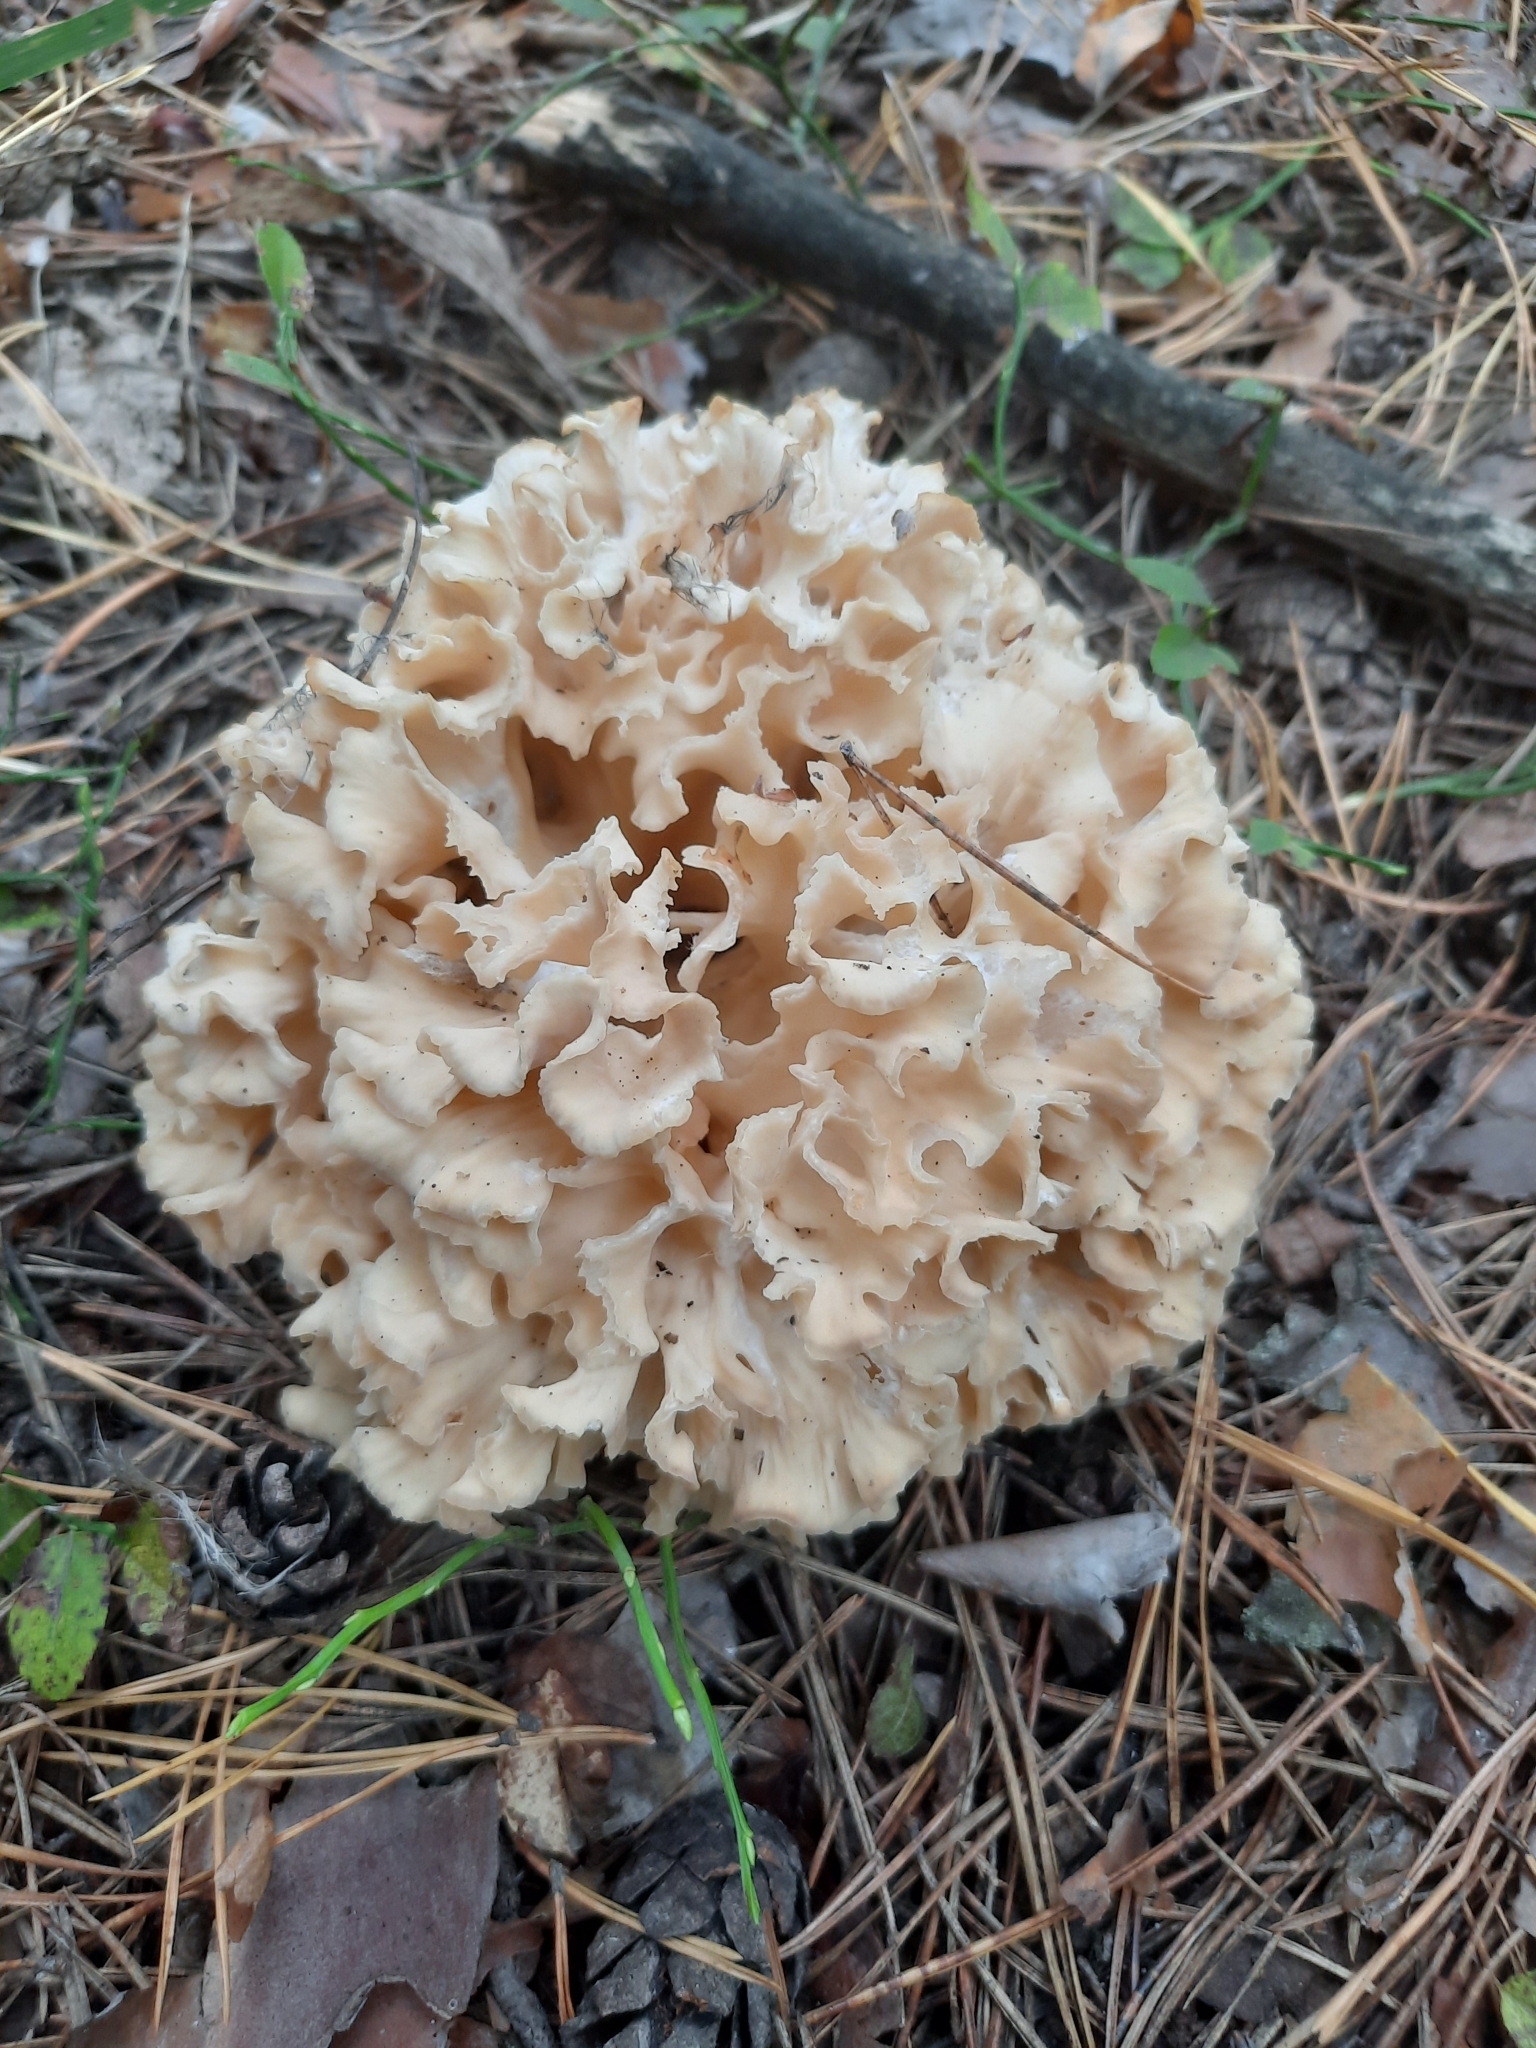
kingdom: Fungi
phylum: Basidiomycota
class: Agaricomycetes
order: Polyporales
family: Sparassidaceae
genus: Sparassis
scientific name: Sparassis crispa
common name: Brain fungus
